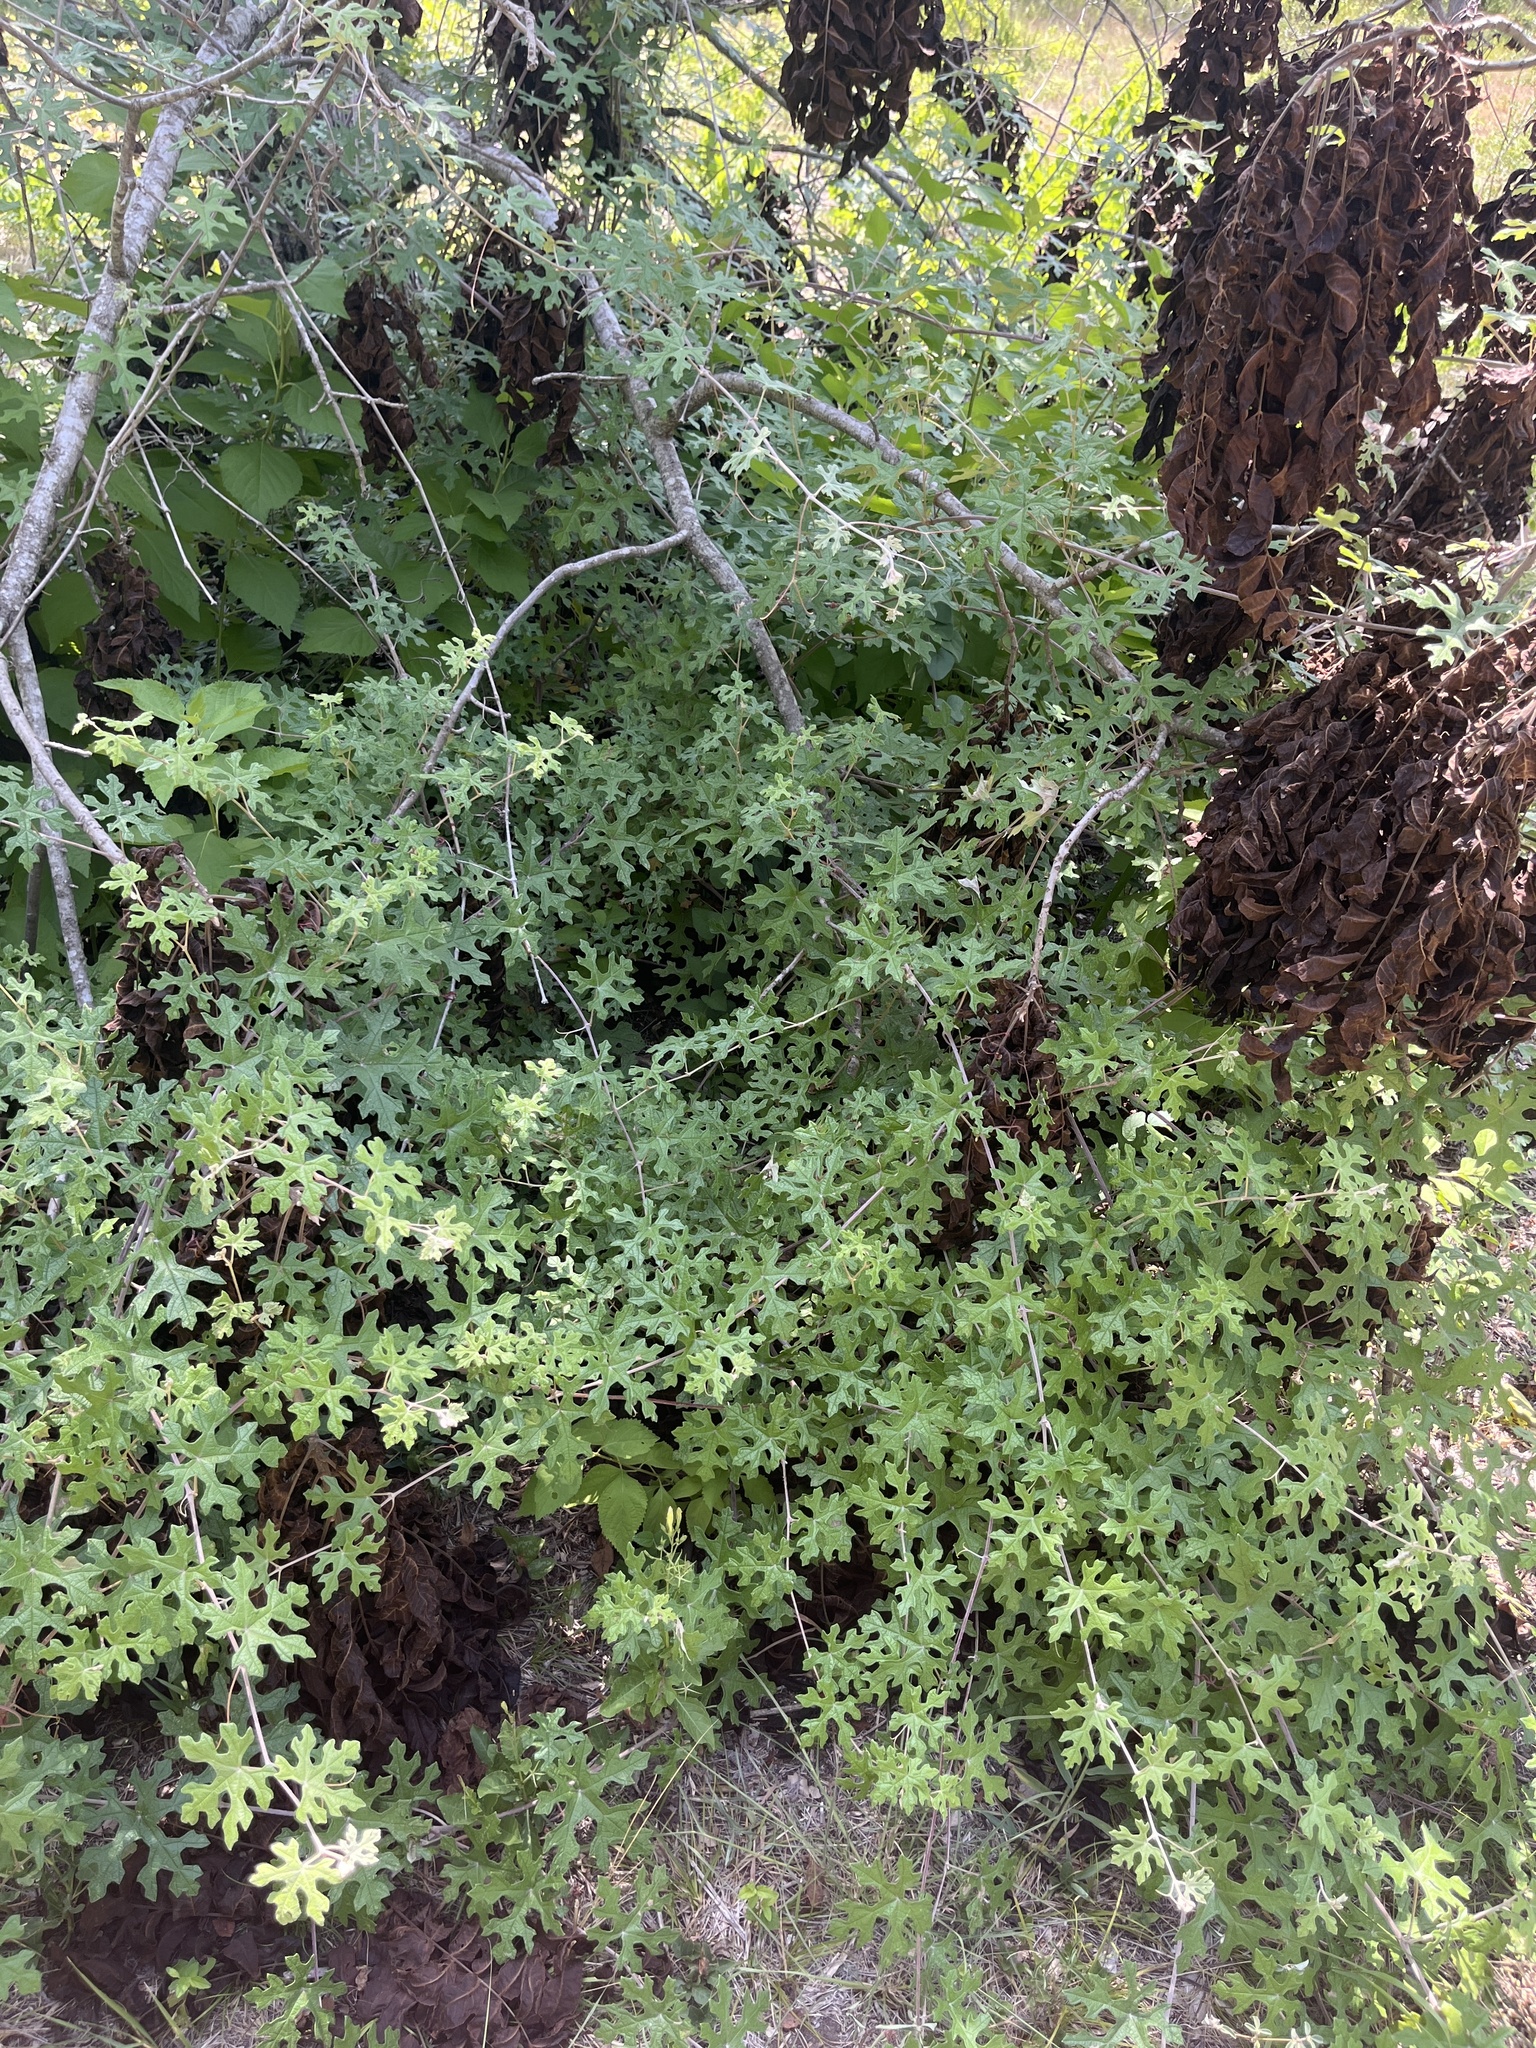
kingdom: Plantae
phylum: Tracheophyta
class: Magnoliopsida
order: Vitales
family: Vitaceae
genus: Vitis
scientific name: Vitis mustangensis
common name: Mustang grape
